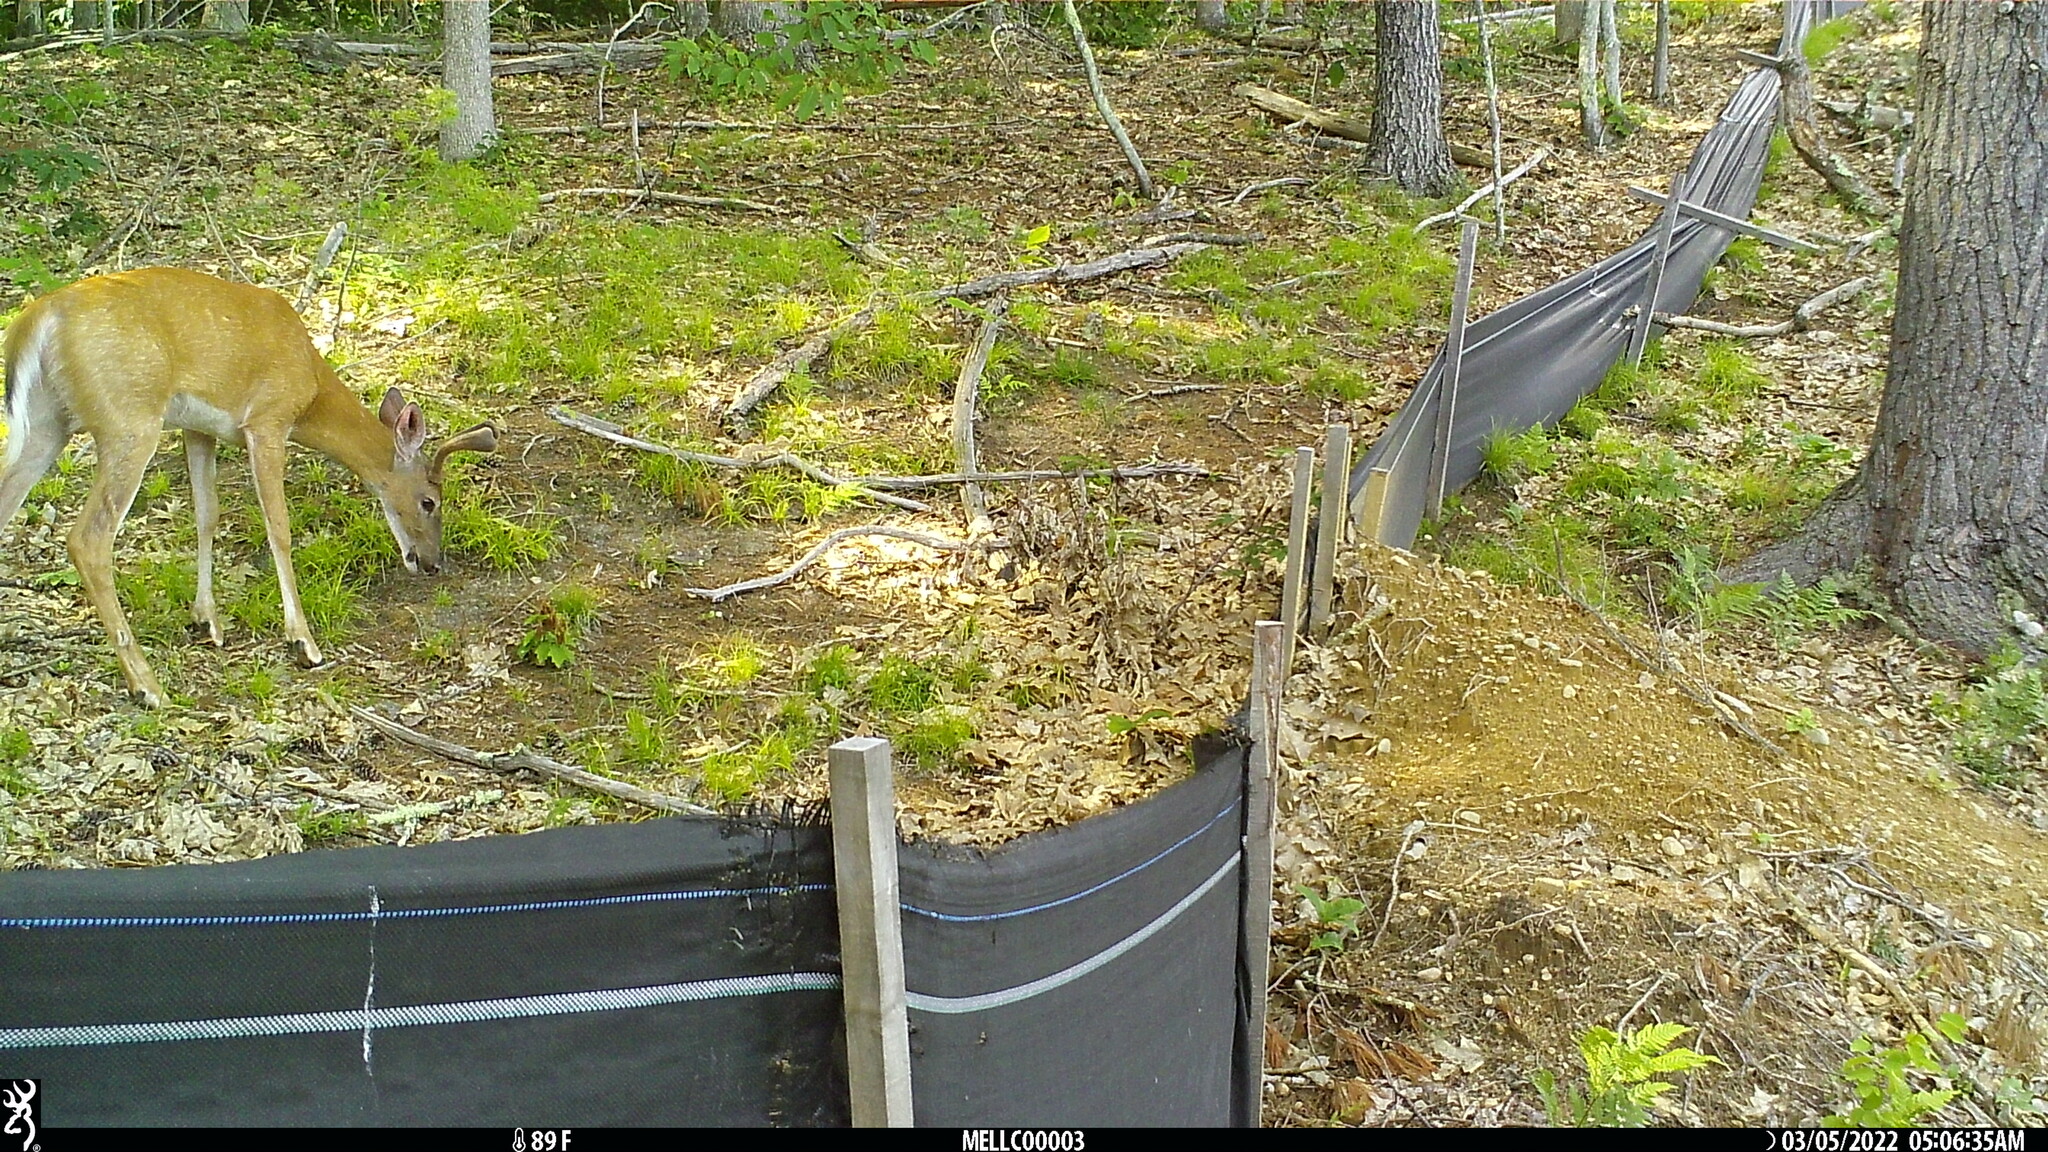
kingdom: Animalia
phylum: Chordata
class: Mammalia
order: Artiodactyla
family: Cervidae
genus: Odocoileus
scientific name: Odocoileus virginianus
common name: White-tailed deer
